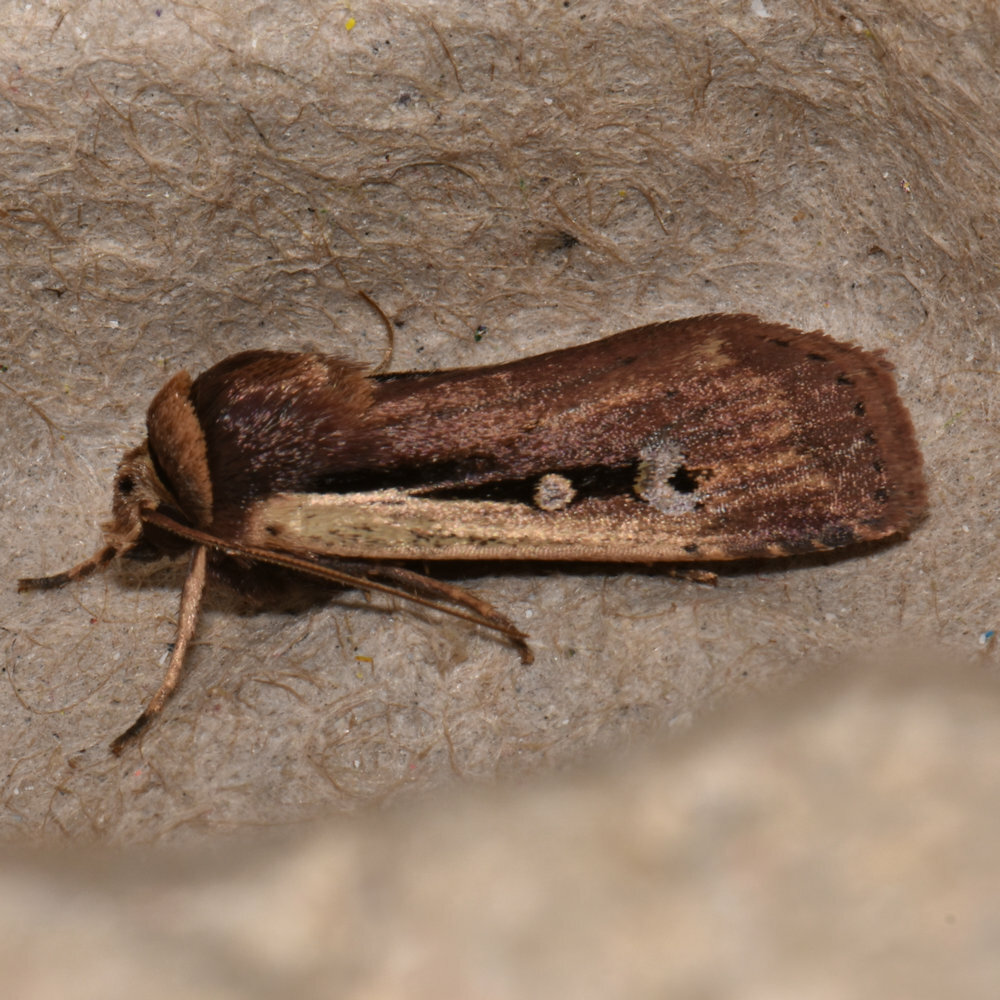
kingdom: Animalia
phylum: Arthropoda
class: Insecta
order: Lepidoptera
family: Noctuidae
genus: Ochropleura
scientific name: Ochropleura implecta
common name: Flame-shouldered dart
